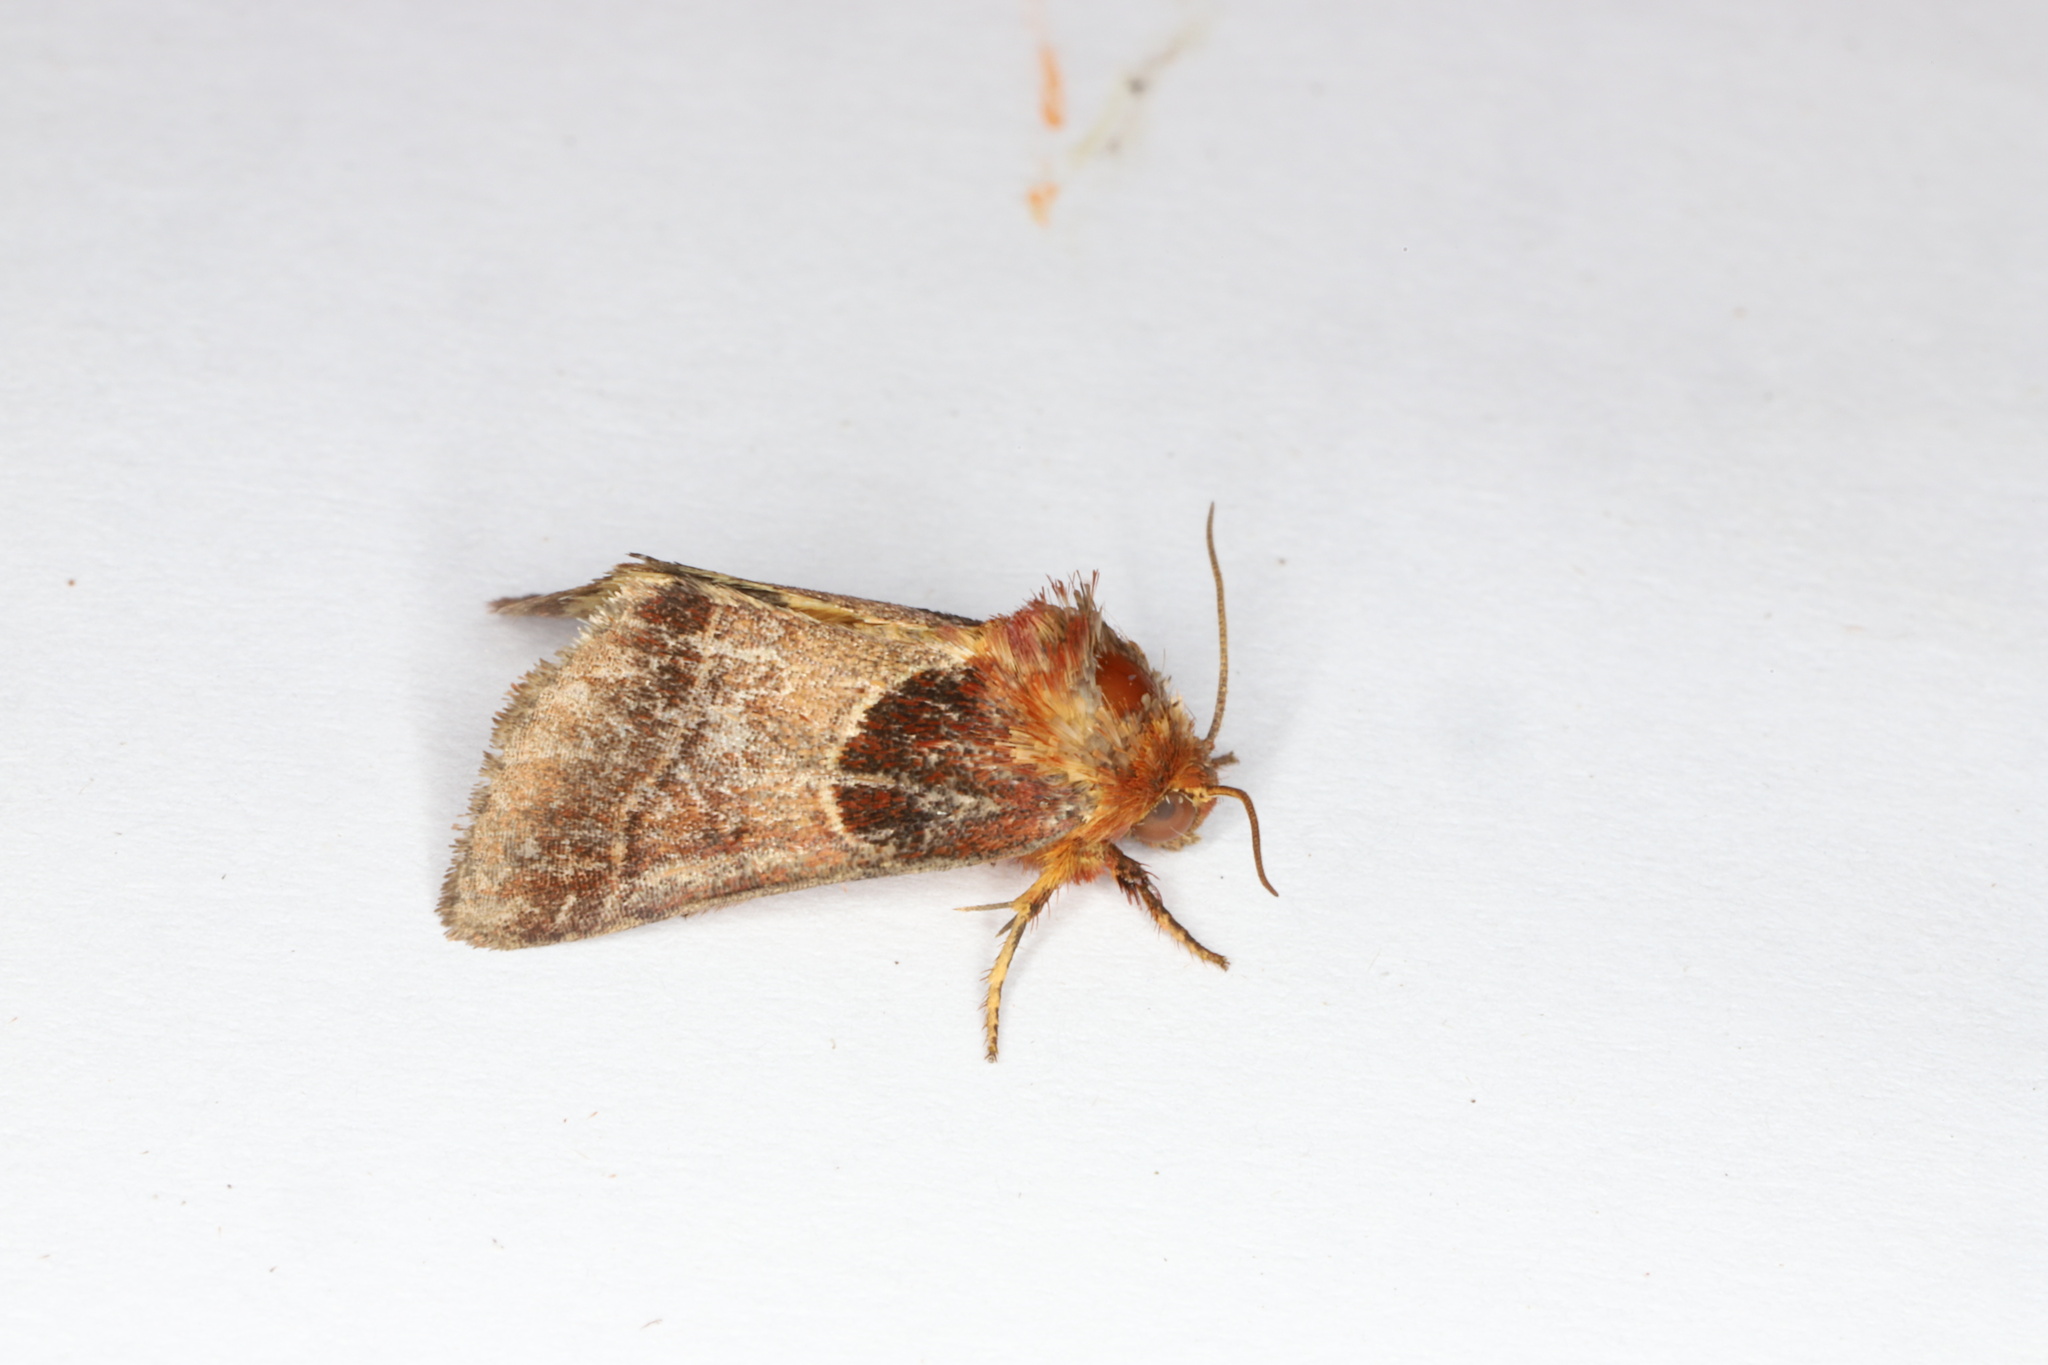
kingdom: Animalia
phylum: Arthropoda
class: Insecta
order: Lepidoptera
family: Noctuidae
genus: Schinia
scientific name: Schinia arcigera
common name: Arcigera flower moth
